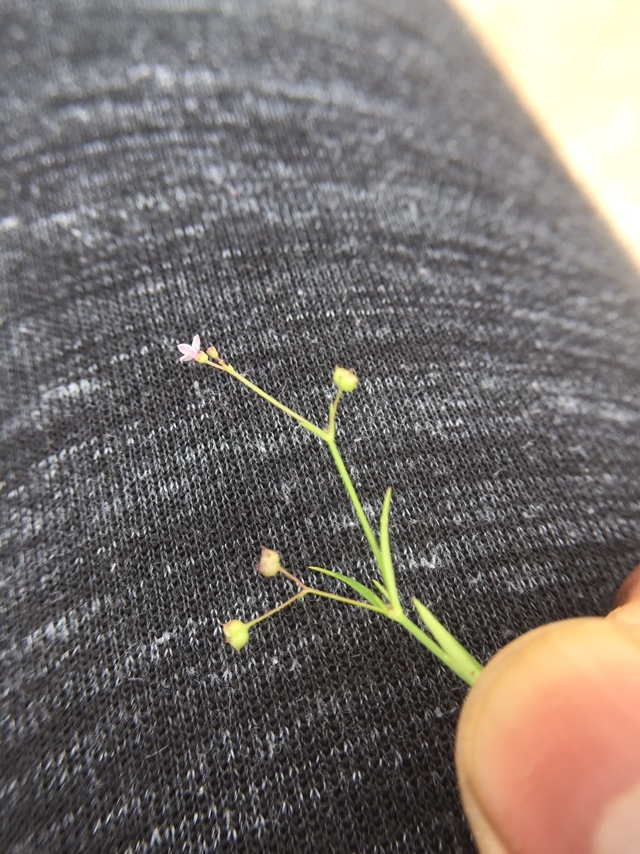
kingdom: Plantae
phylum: Tracheophyta
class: Magnoliopsida
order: Gentianales
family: Rubiaceae
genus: Oldenlandia
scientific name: Oldenlandia herbacea
